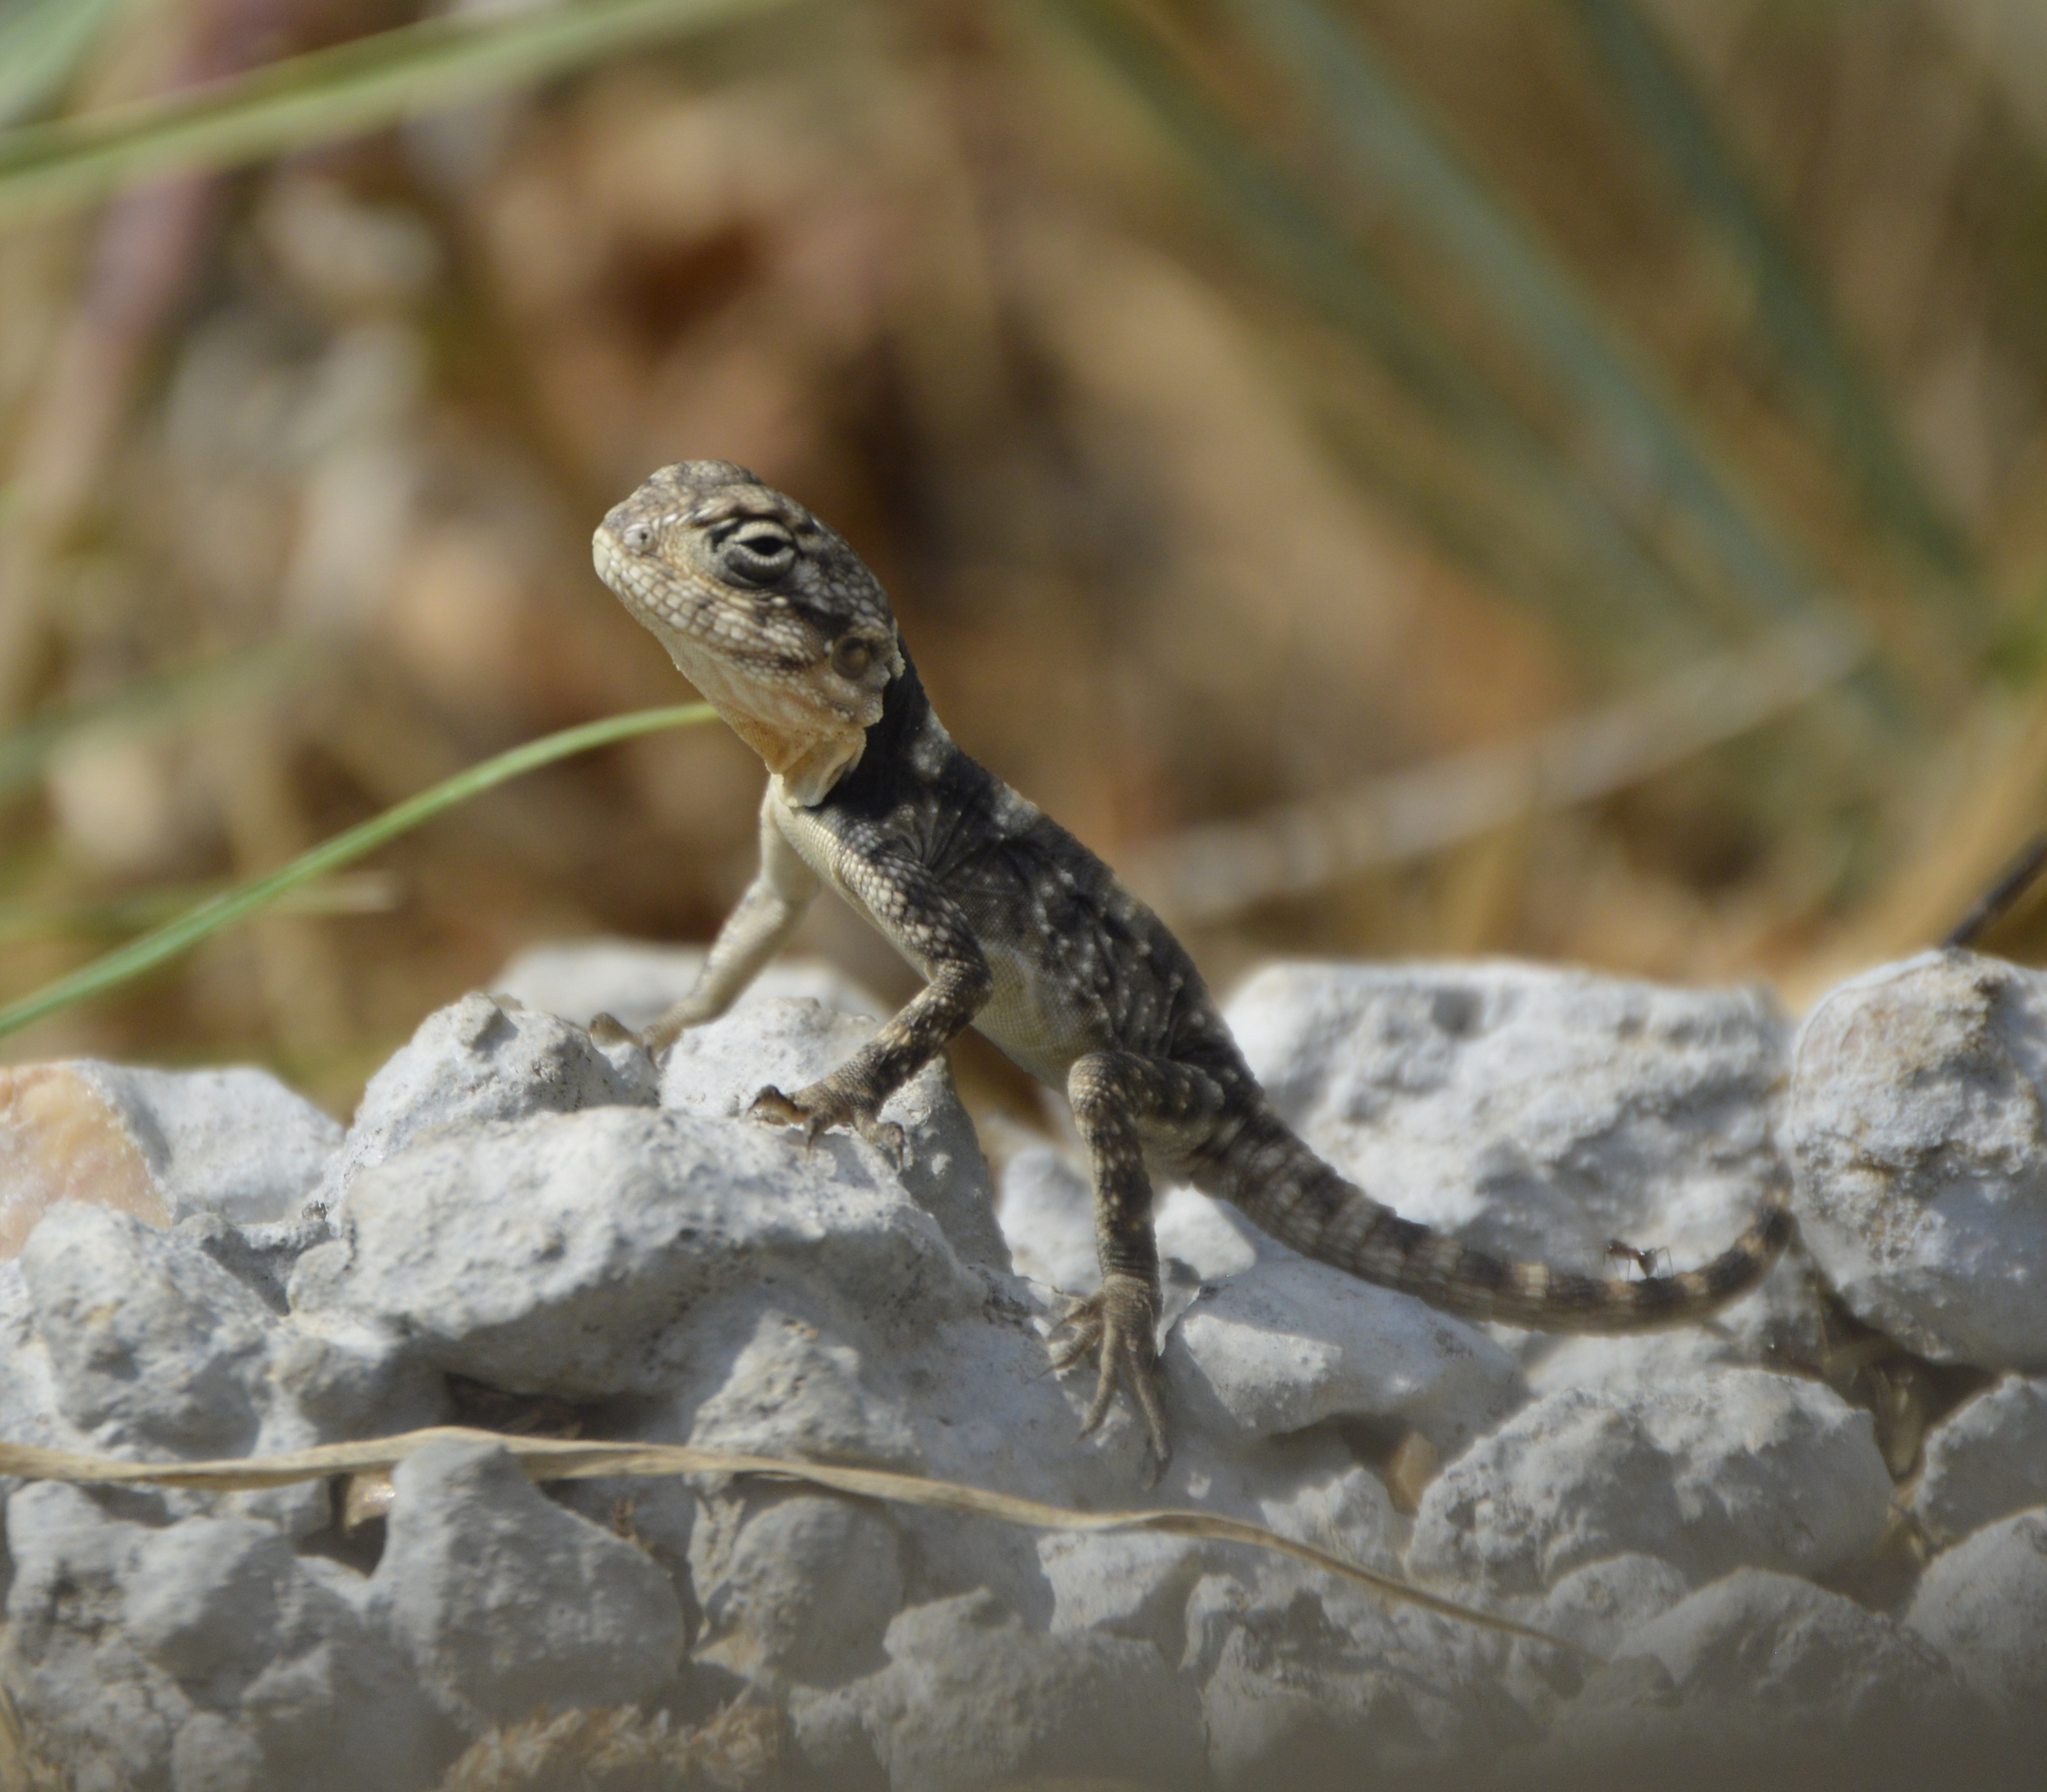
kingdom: Animalia
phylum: Chordata
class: Squamata
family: Agamidae
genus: Laudakia
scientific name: Laudakia vulgaris
